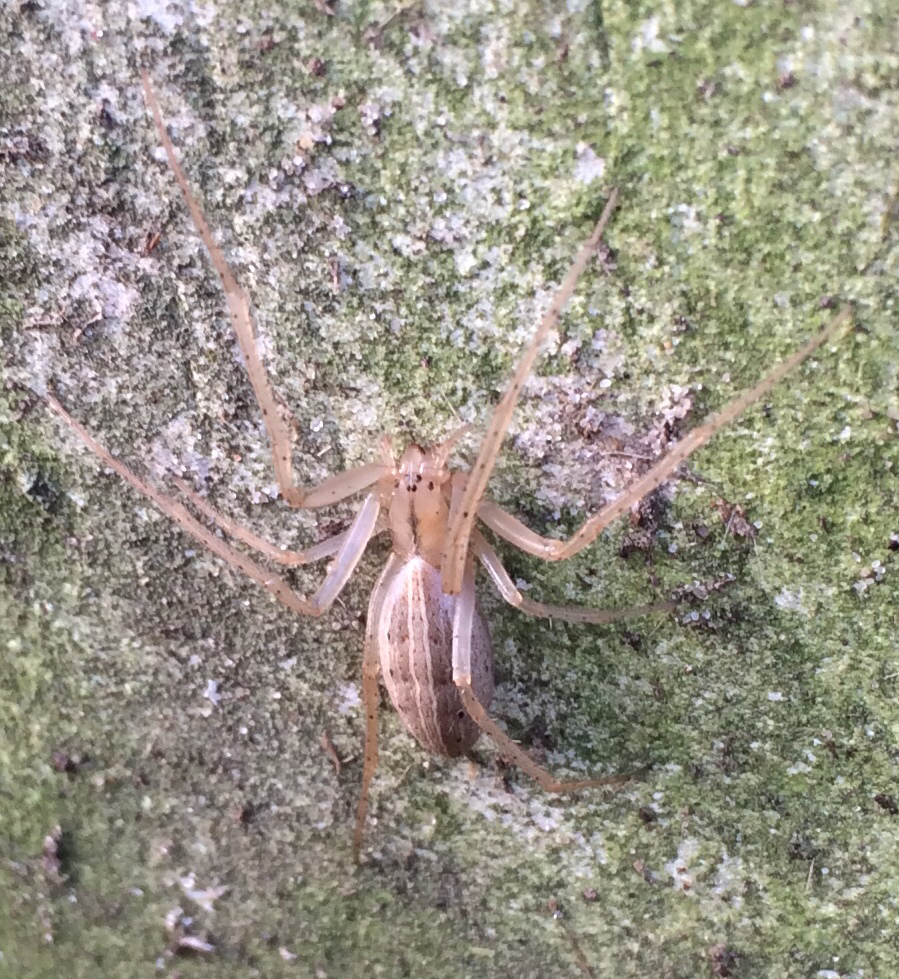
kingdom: Animalia
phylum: Arthropoda
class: Arachnida
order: Araneae
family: Araneidae
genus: Larinia
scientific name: Larinia directa
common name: Orb weavers
